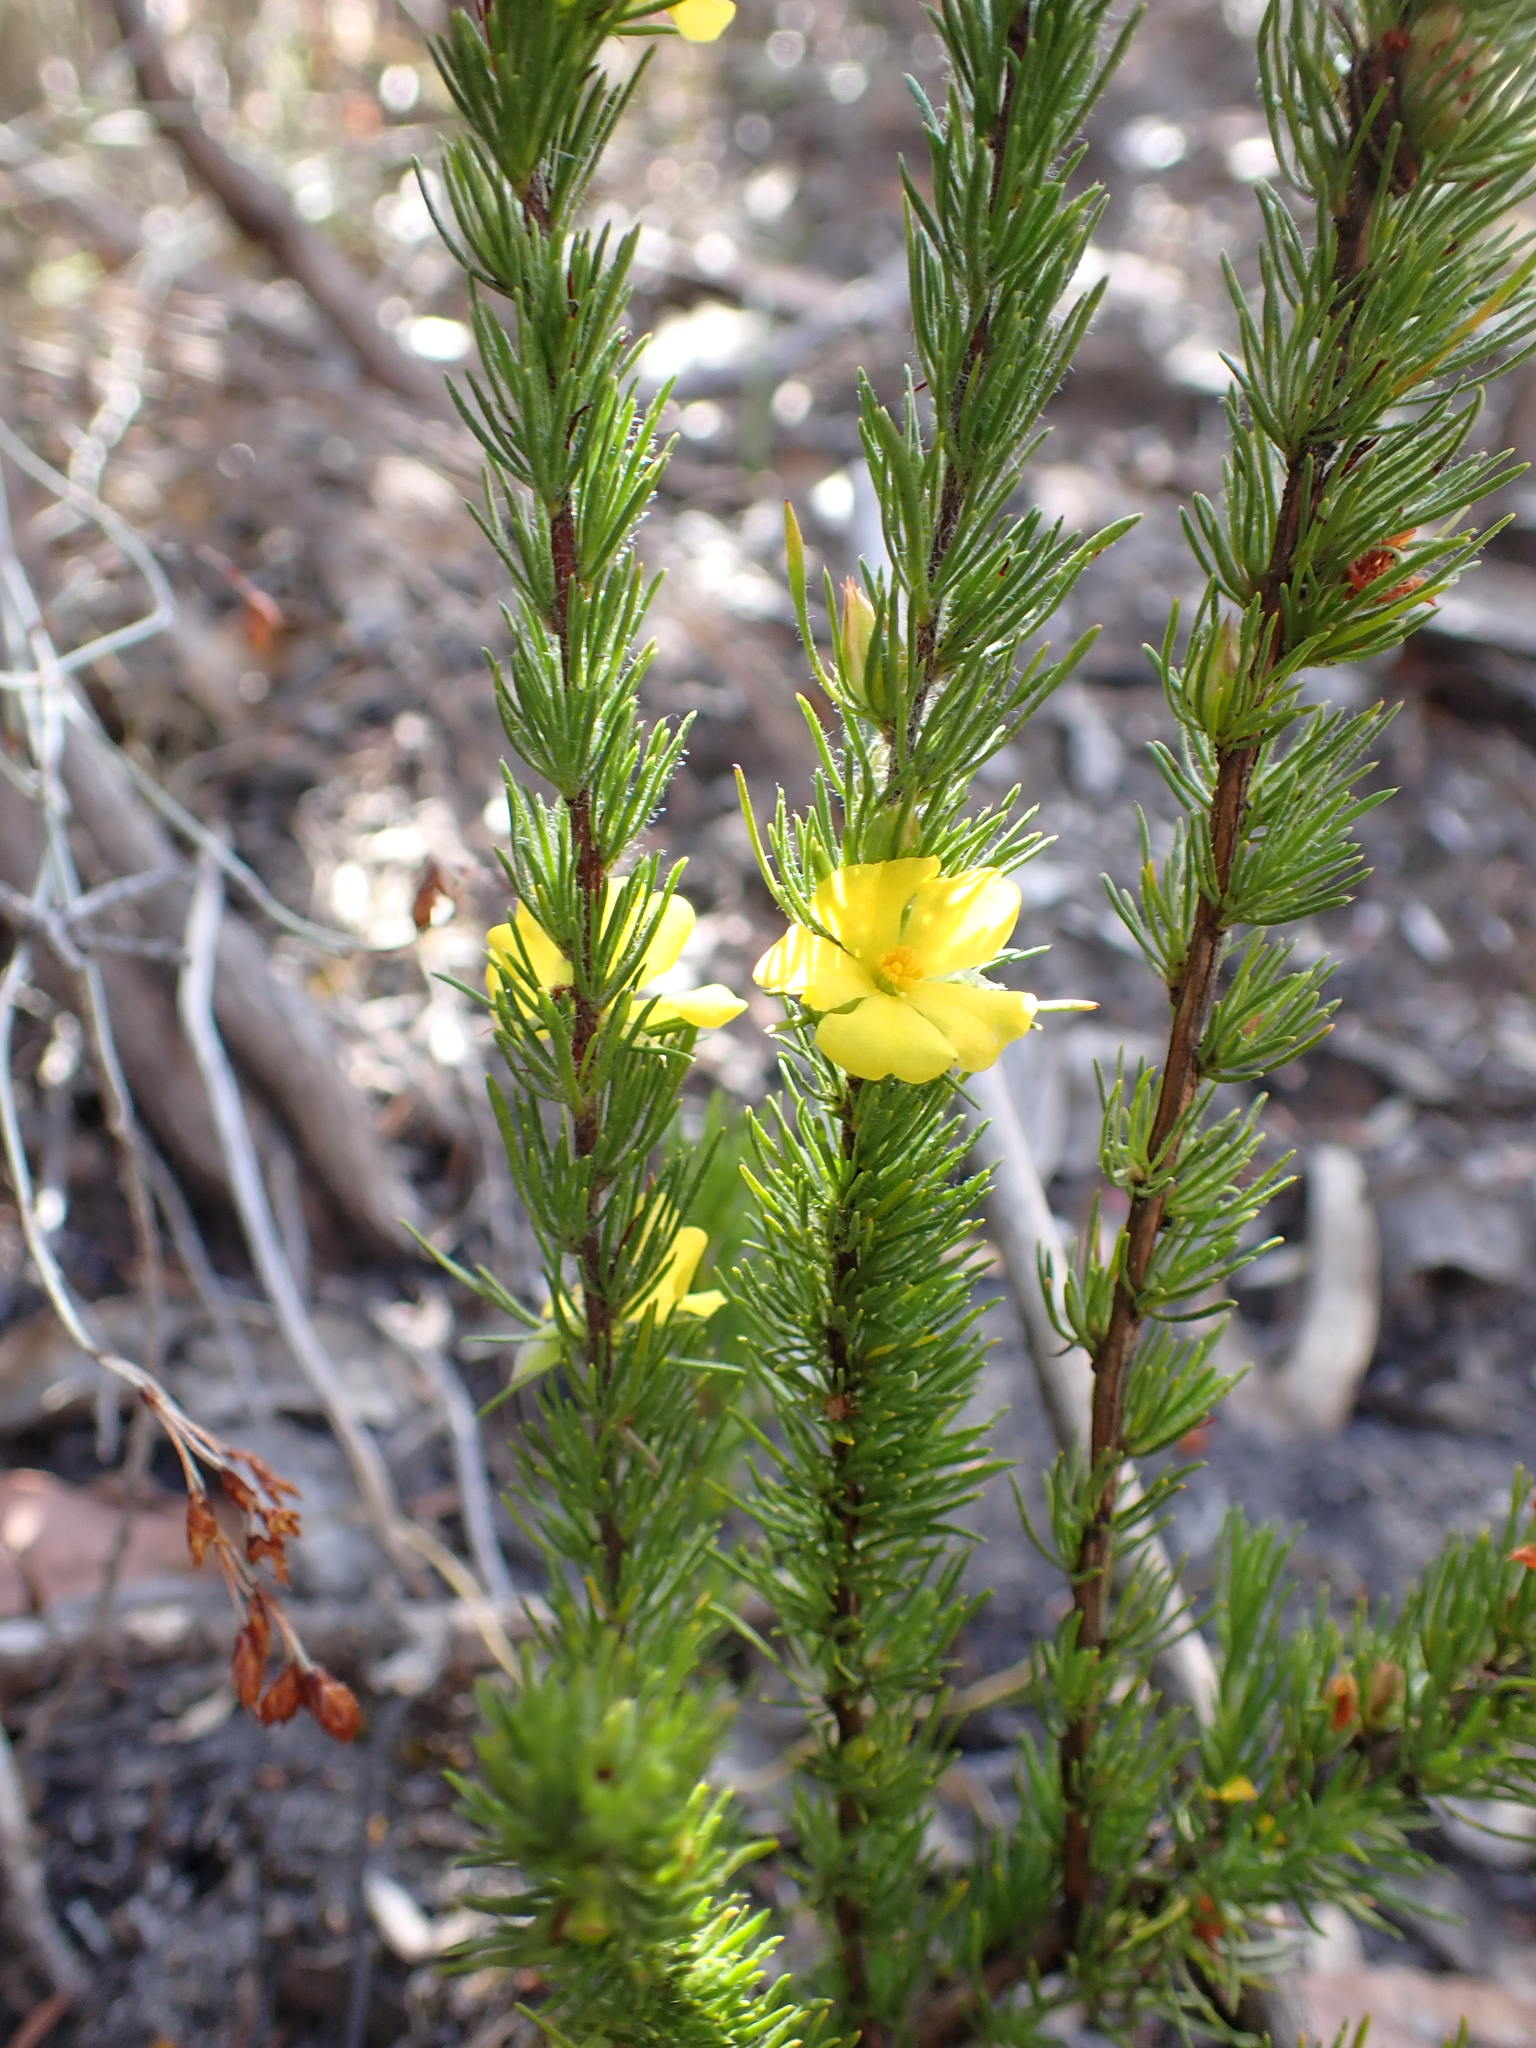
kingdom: Plantae
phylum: Tracheophyta
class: Magnoliopsida
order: Dilleniales
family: Dilleniaceae
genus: Hibbertia
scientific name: Hibbertia prostrata
